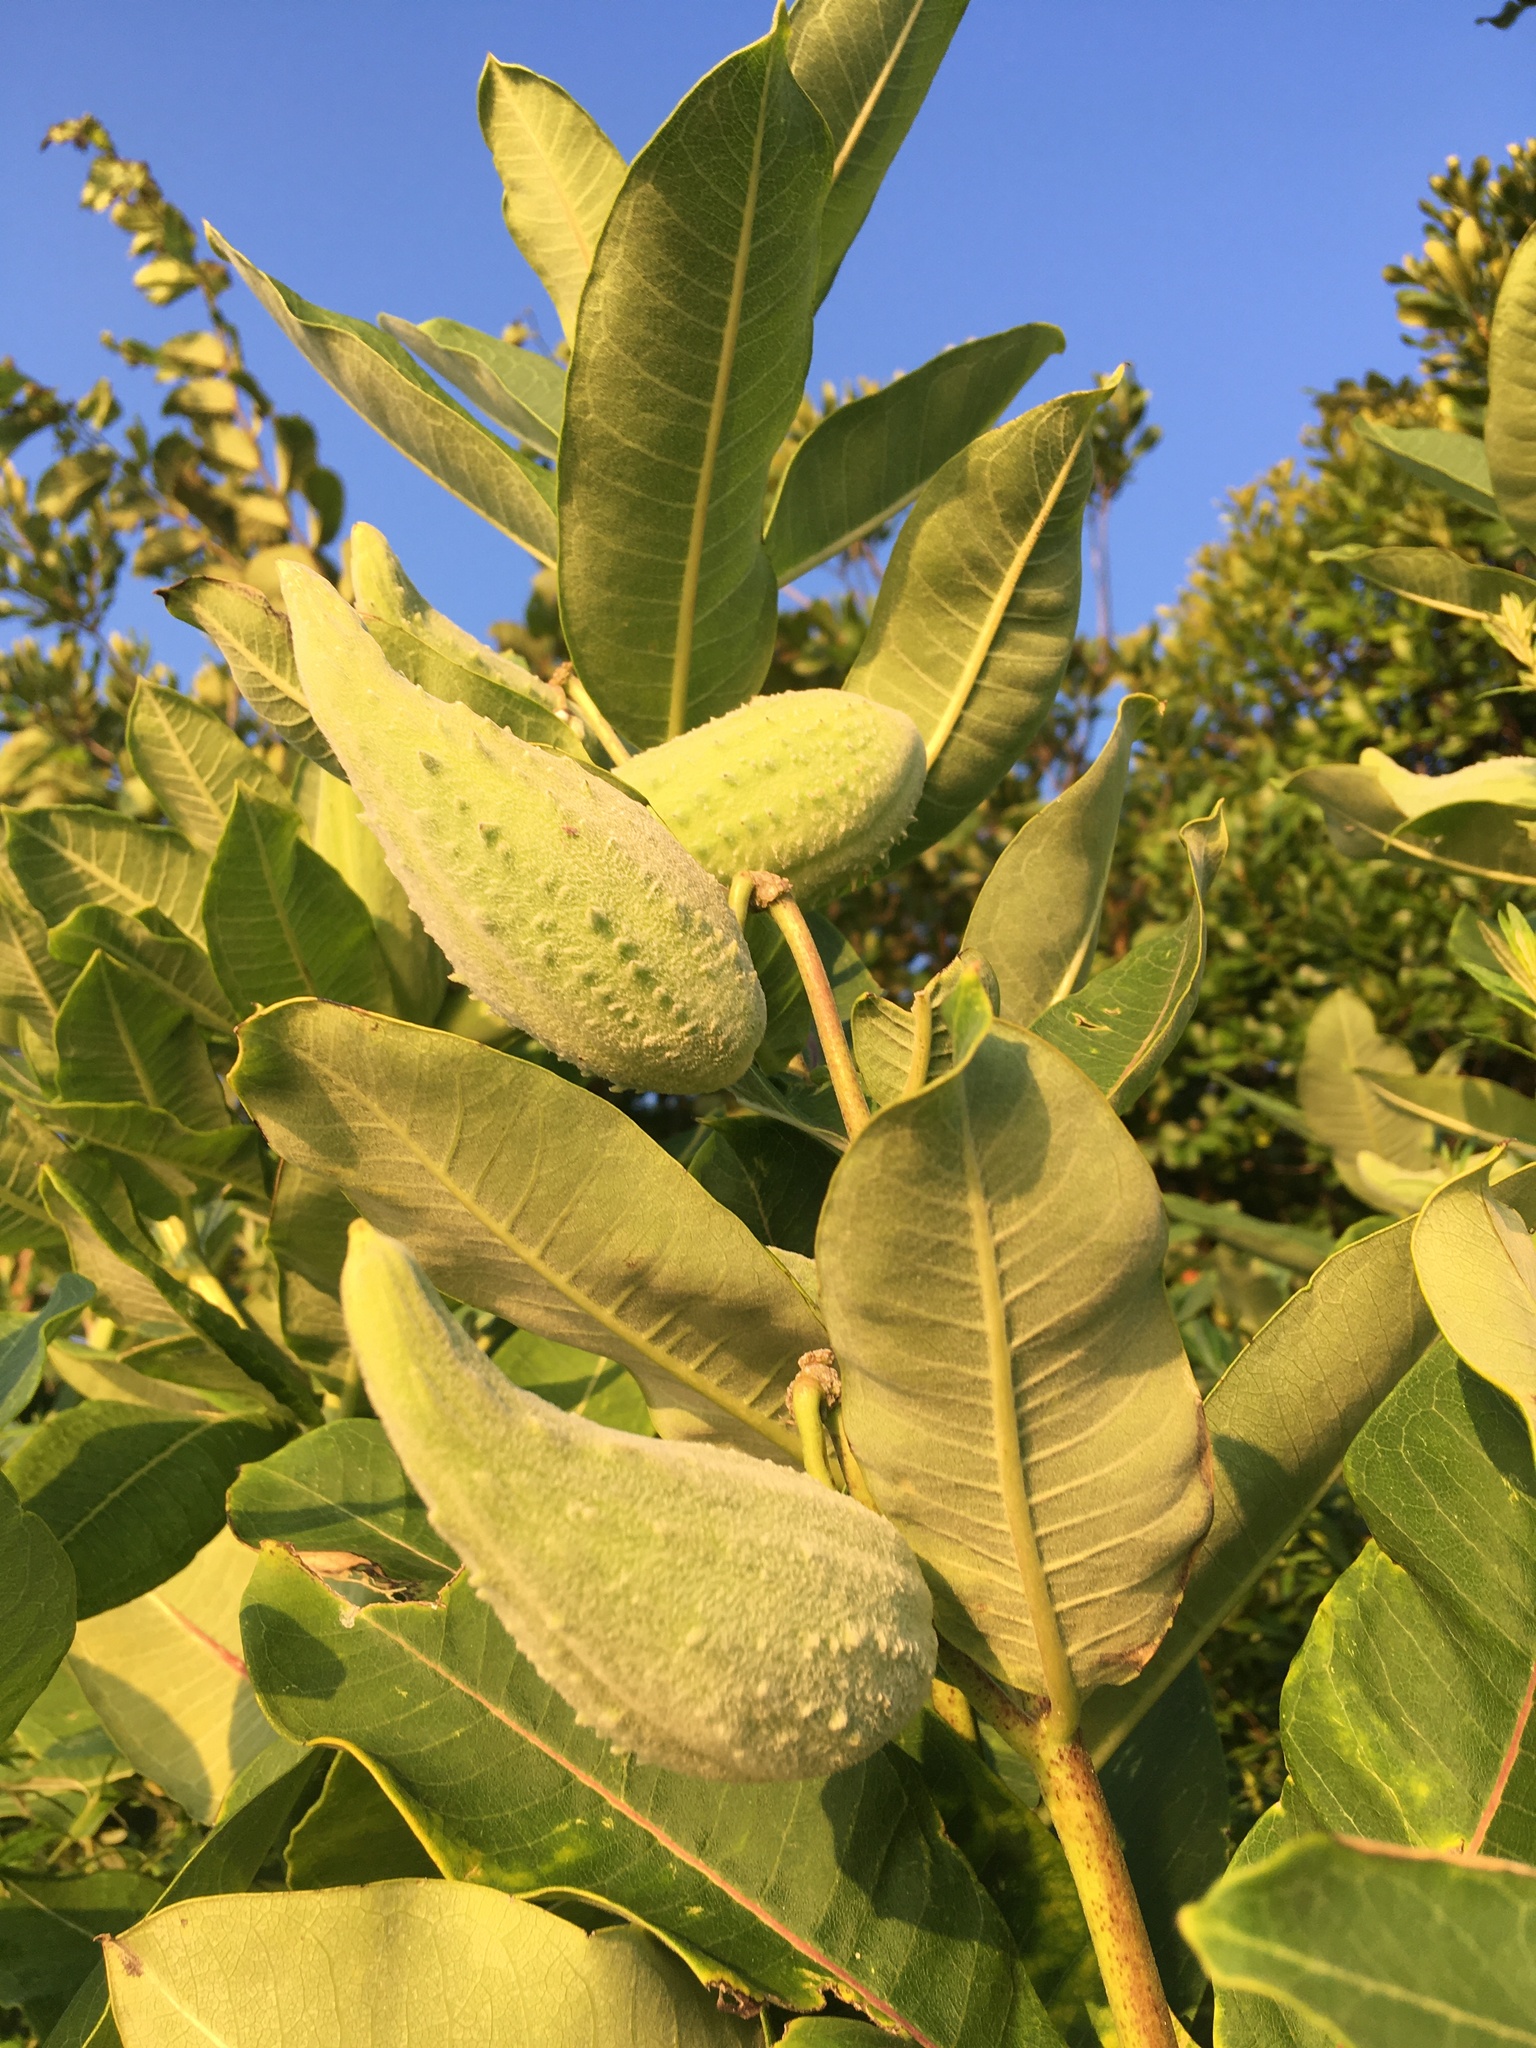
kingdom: Plantae
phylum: Tracheophyta
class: Magnoliopsida
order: Gentianales
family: Apocynaceae
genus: Asclepias
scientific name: Asclepias syriaca
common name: Common milkweed
